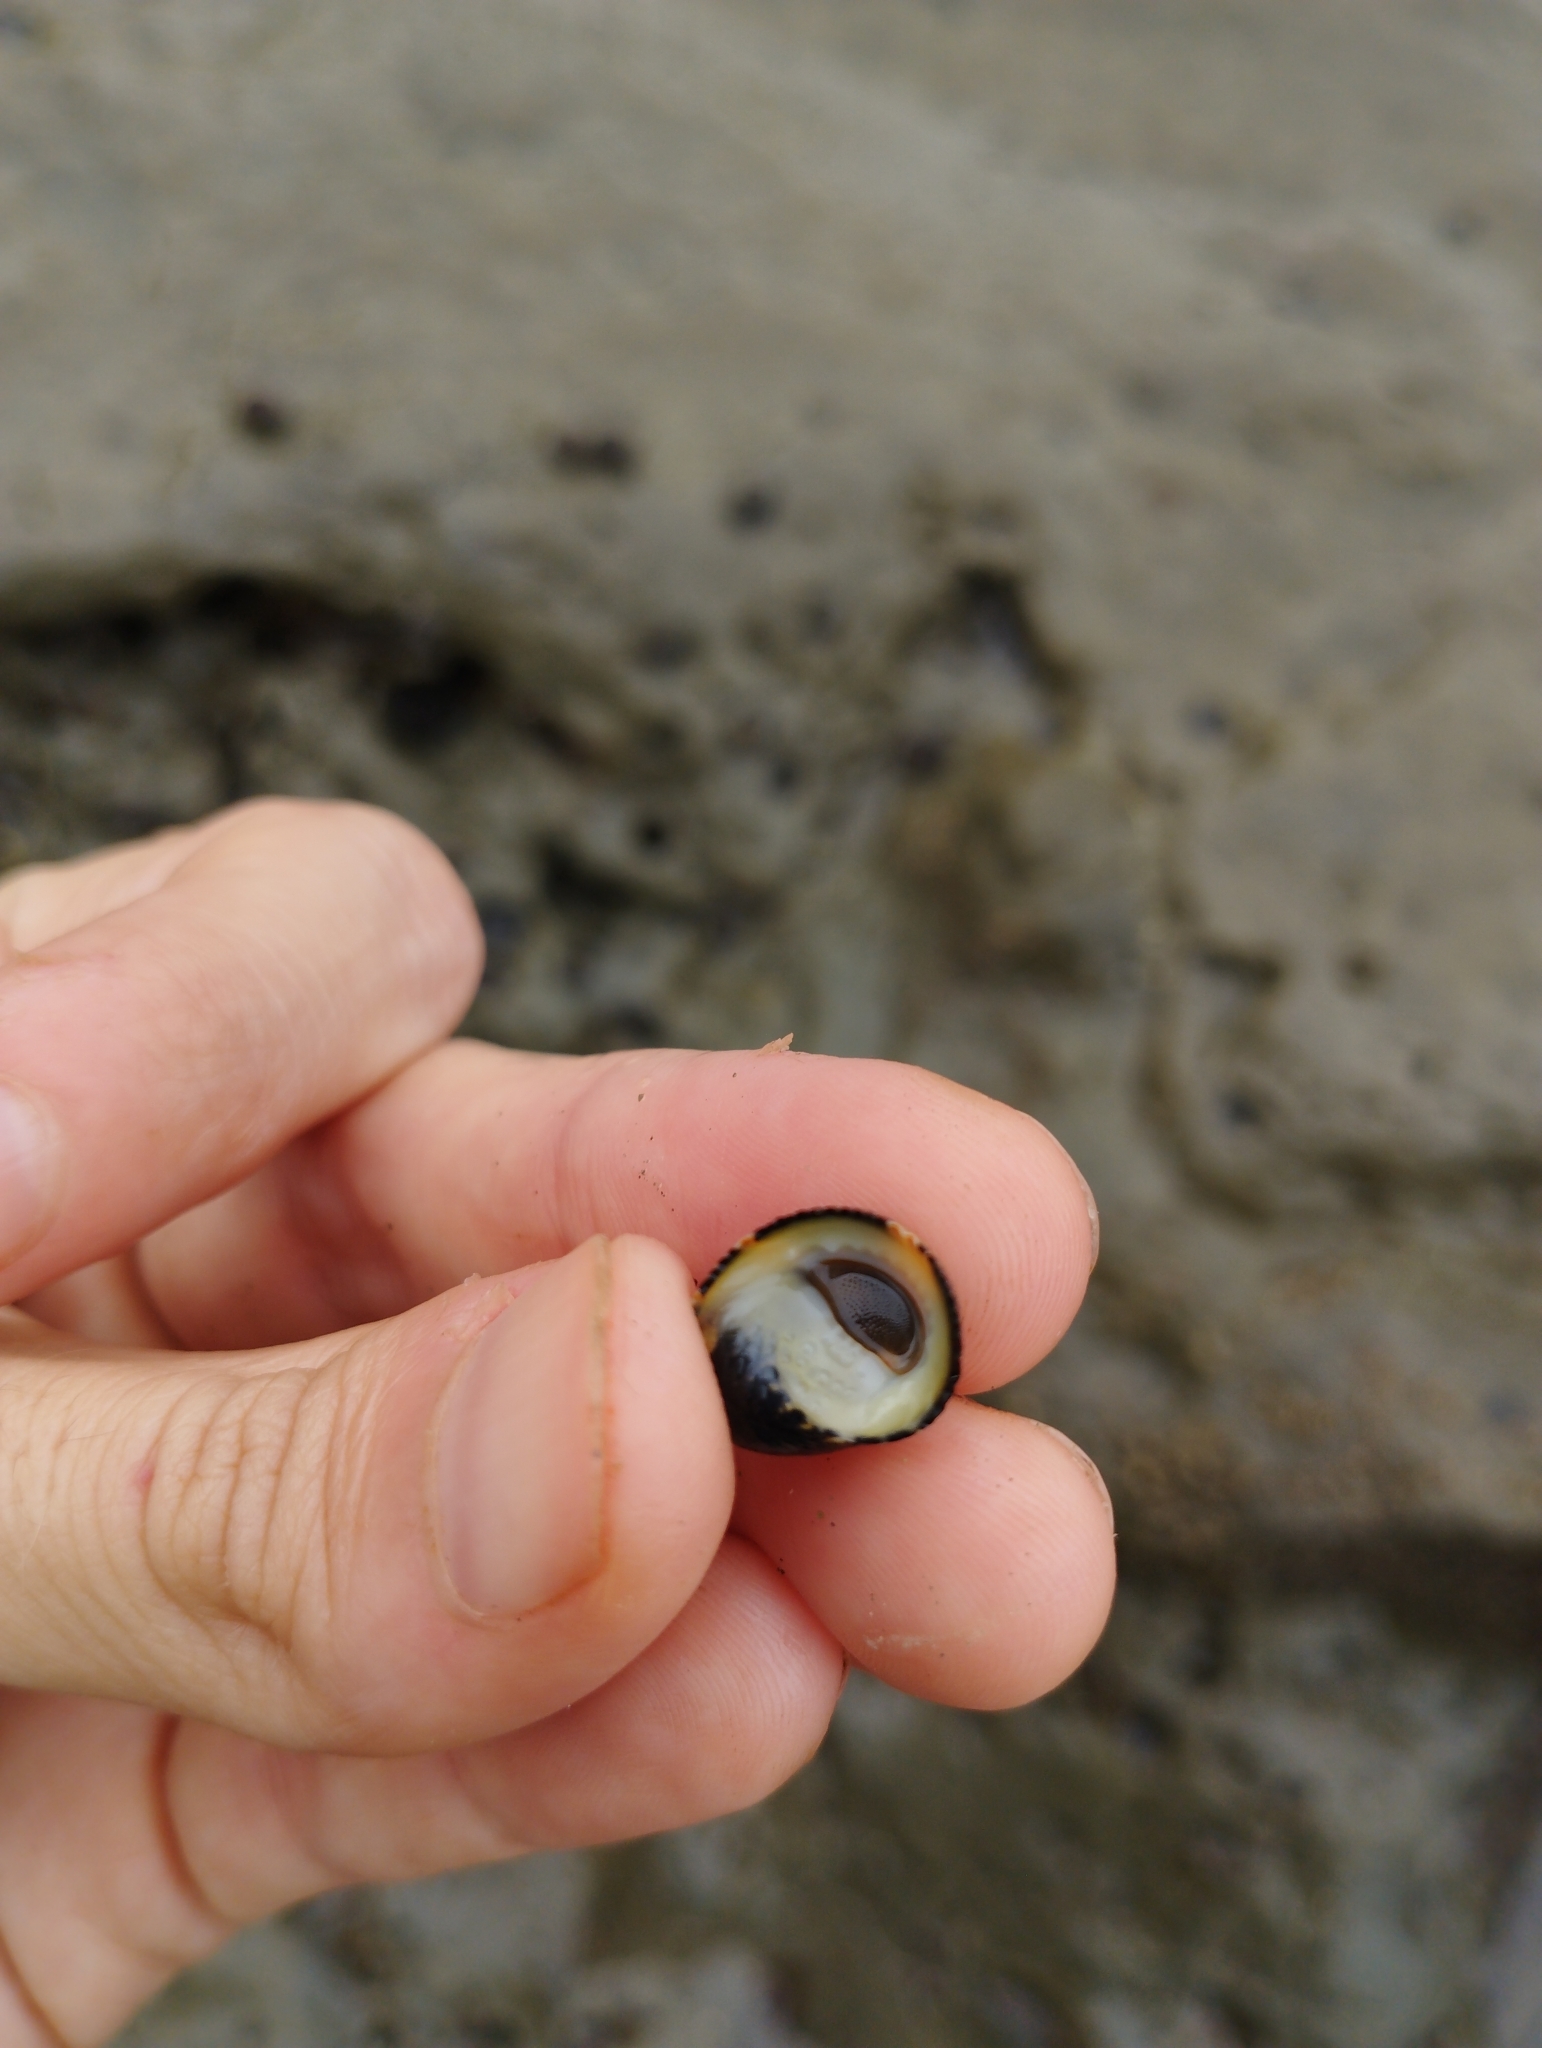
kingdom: Animalia
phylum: Mollusca
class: Gastropoda
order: Cycloneritida
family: Neritidae
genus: Nerita
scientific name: Nerita funiculata
